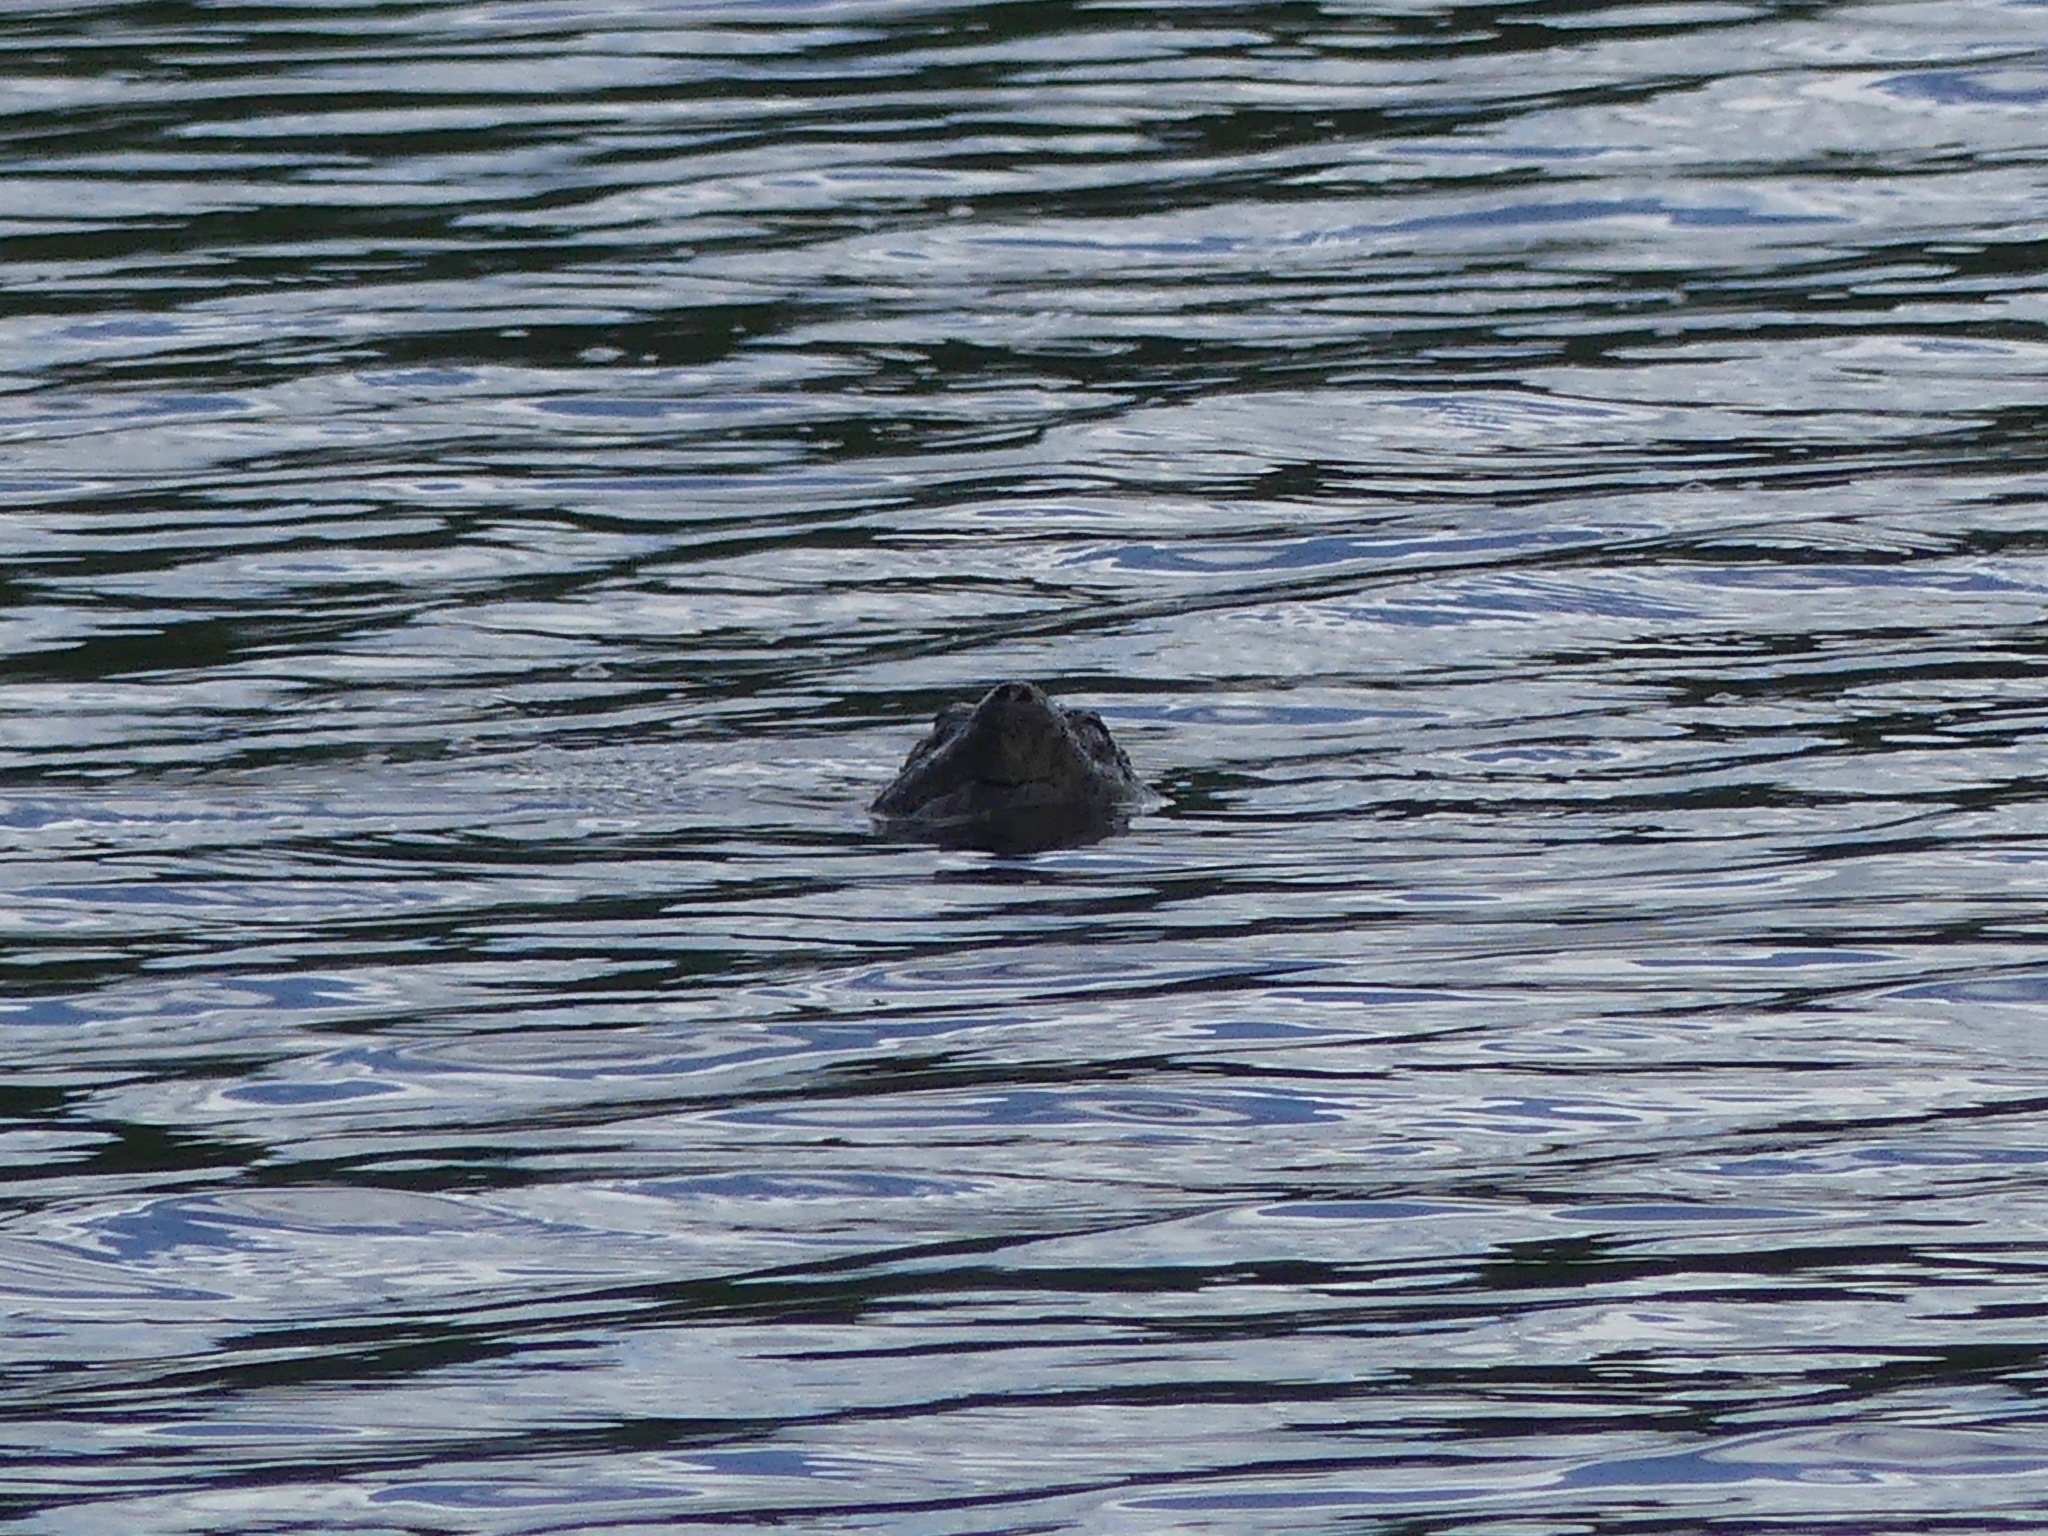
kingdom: Animalia
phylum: Chordata
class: Testudines
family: Chelydridae
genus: Chelydra
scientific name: Chelydra serpentina
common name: Common snapping turtle
